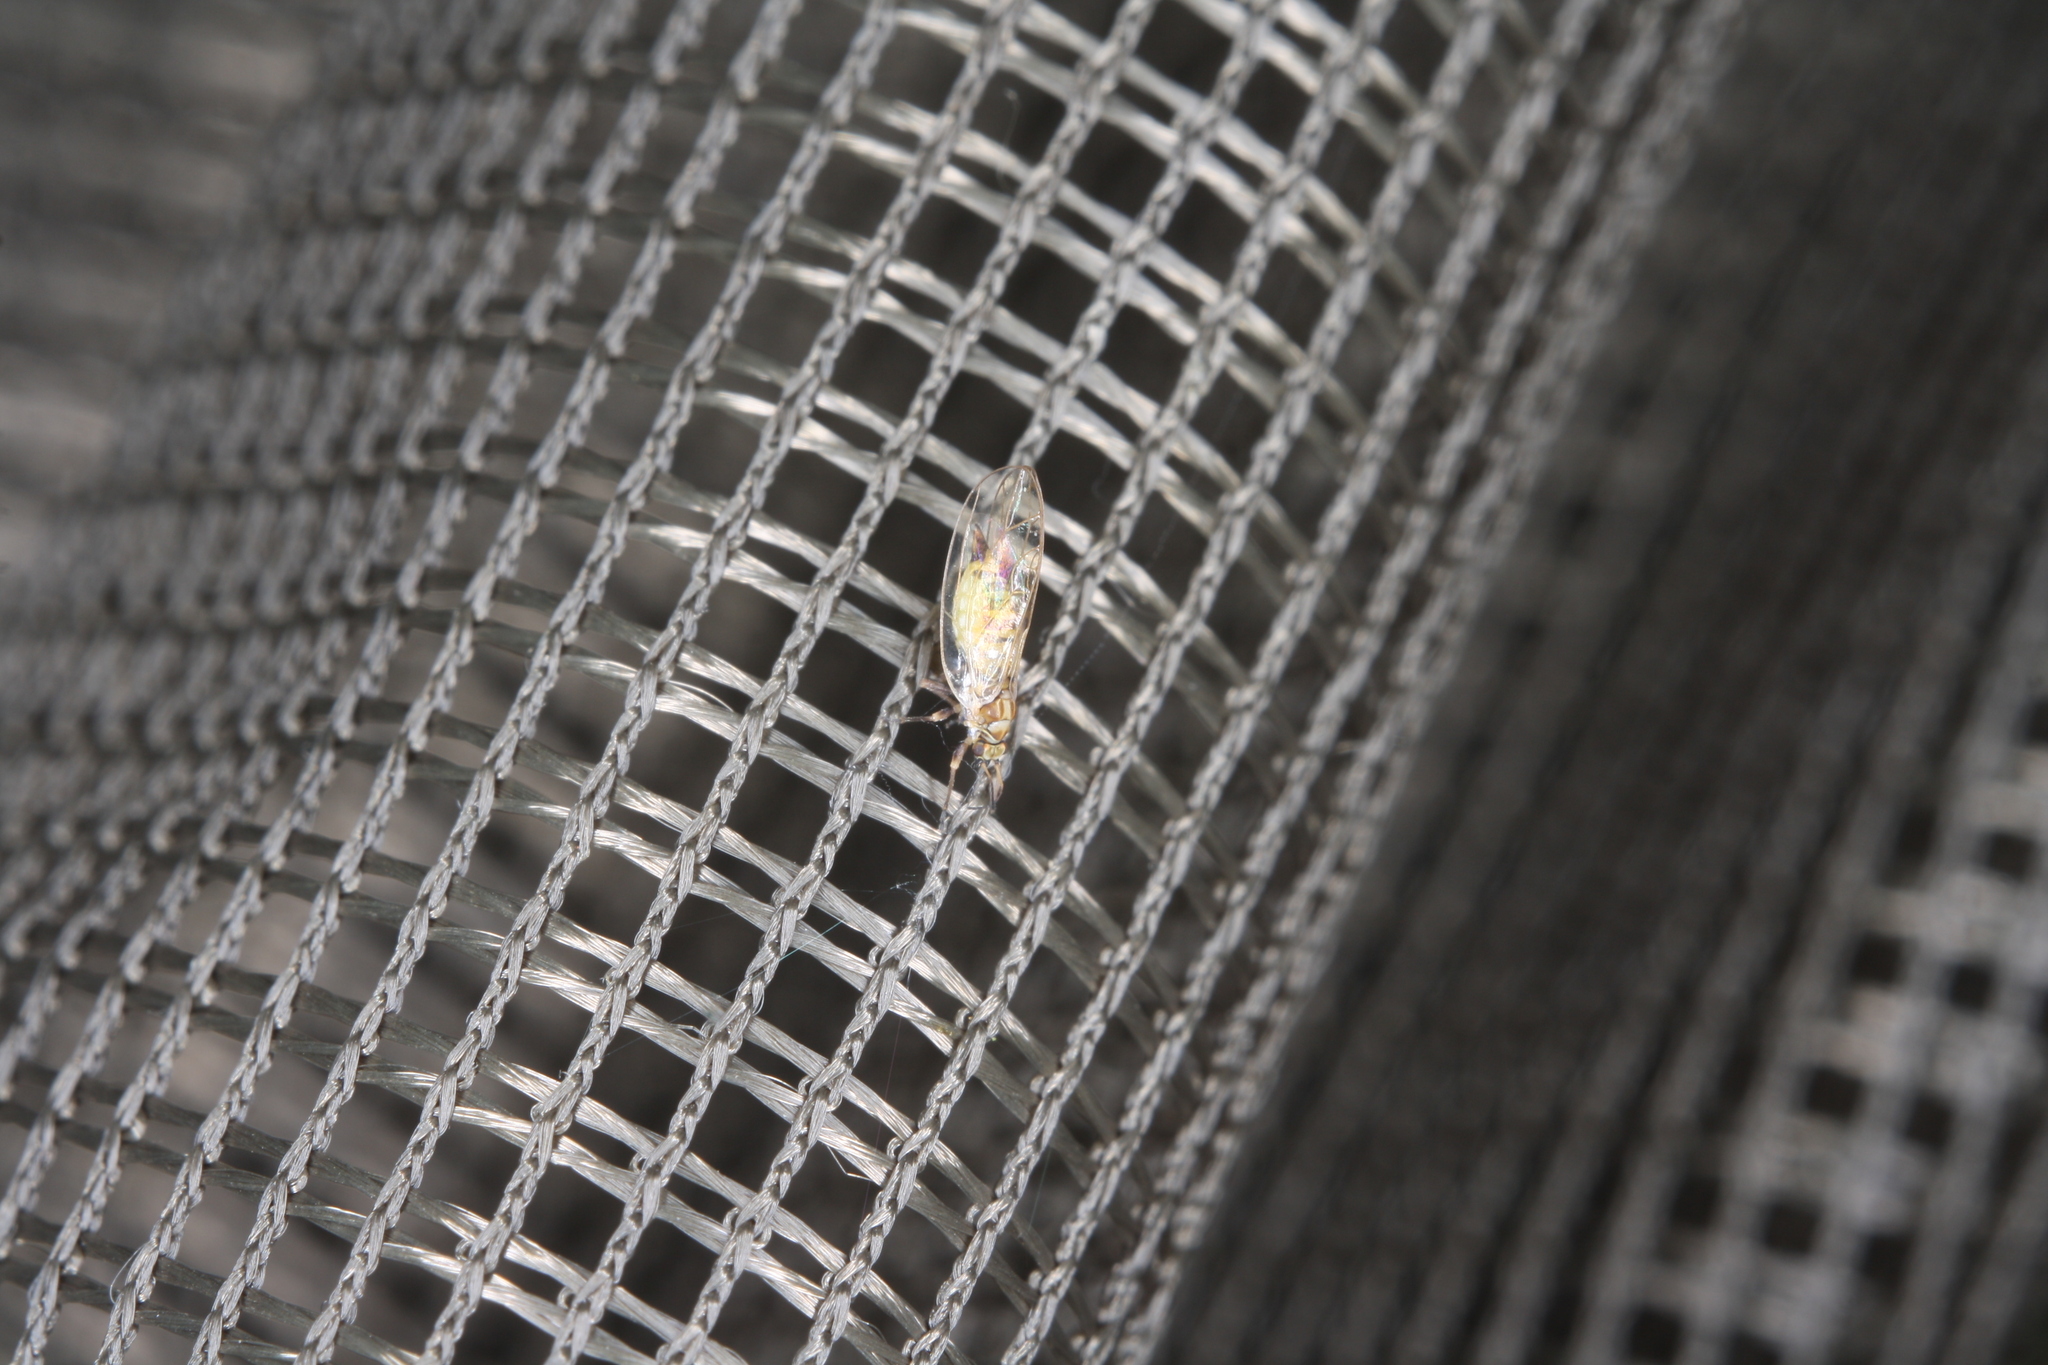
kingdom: Animalia
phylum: Arthropoda
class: Insecta
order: Hemiptera
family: Triozidae
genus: Trioza
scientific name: Trioza urticae
